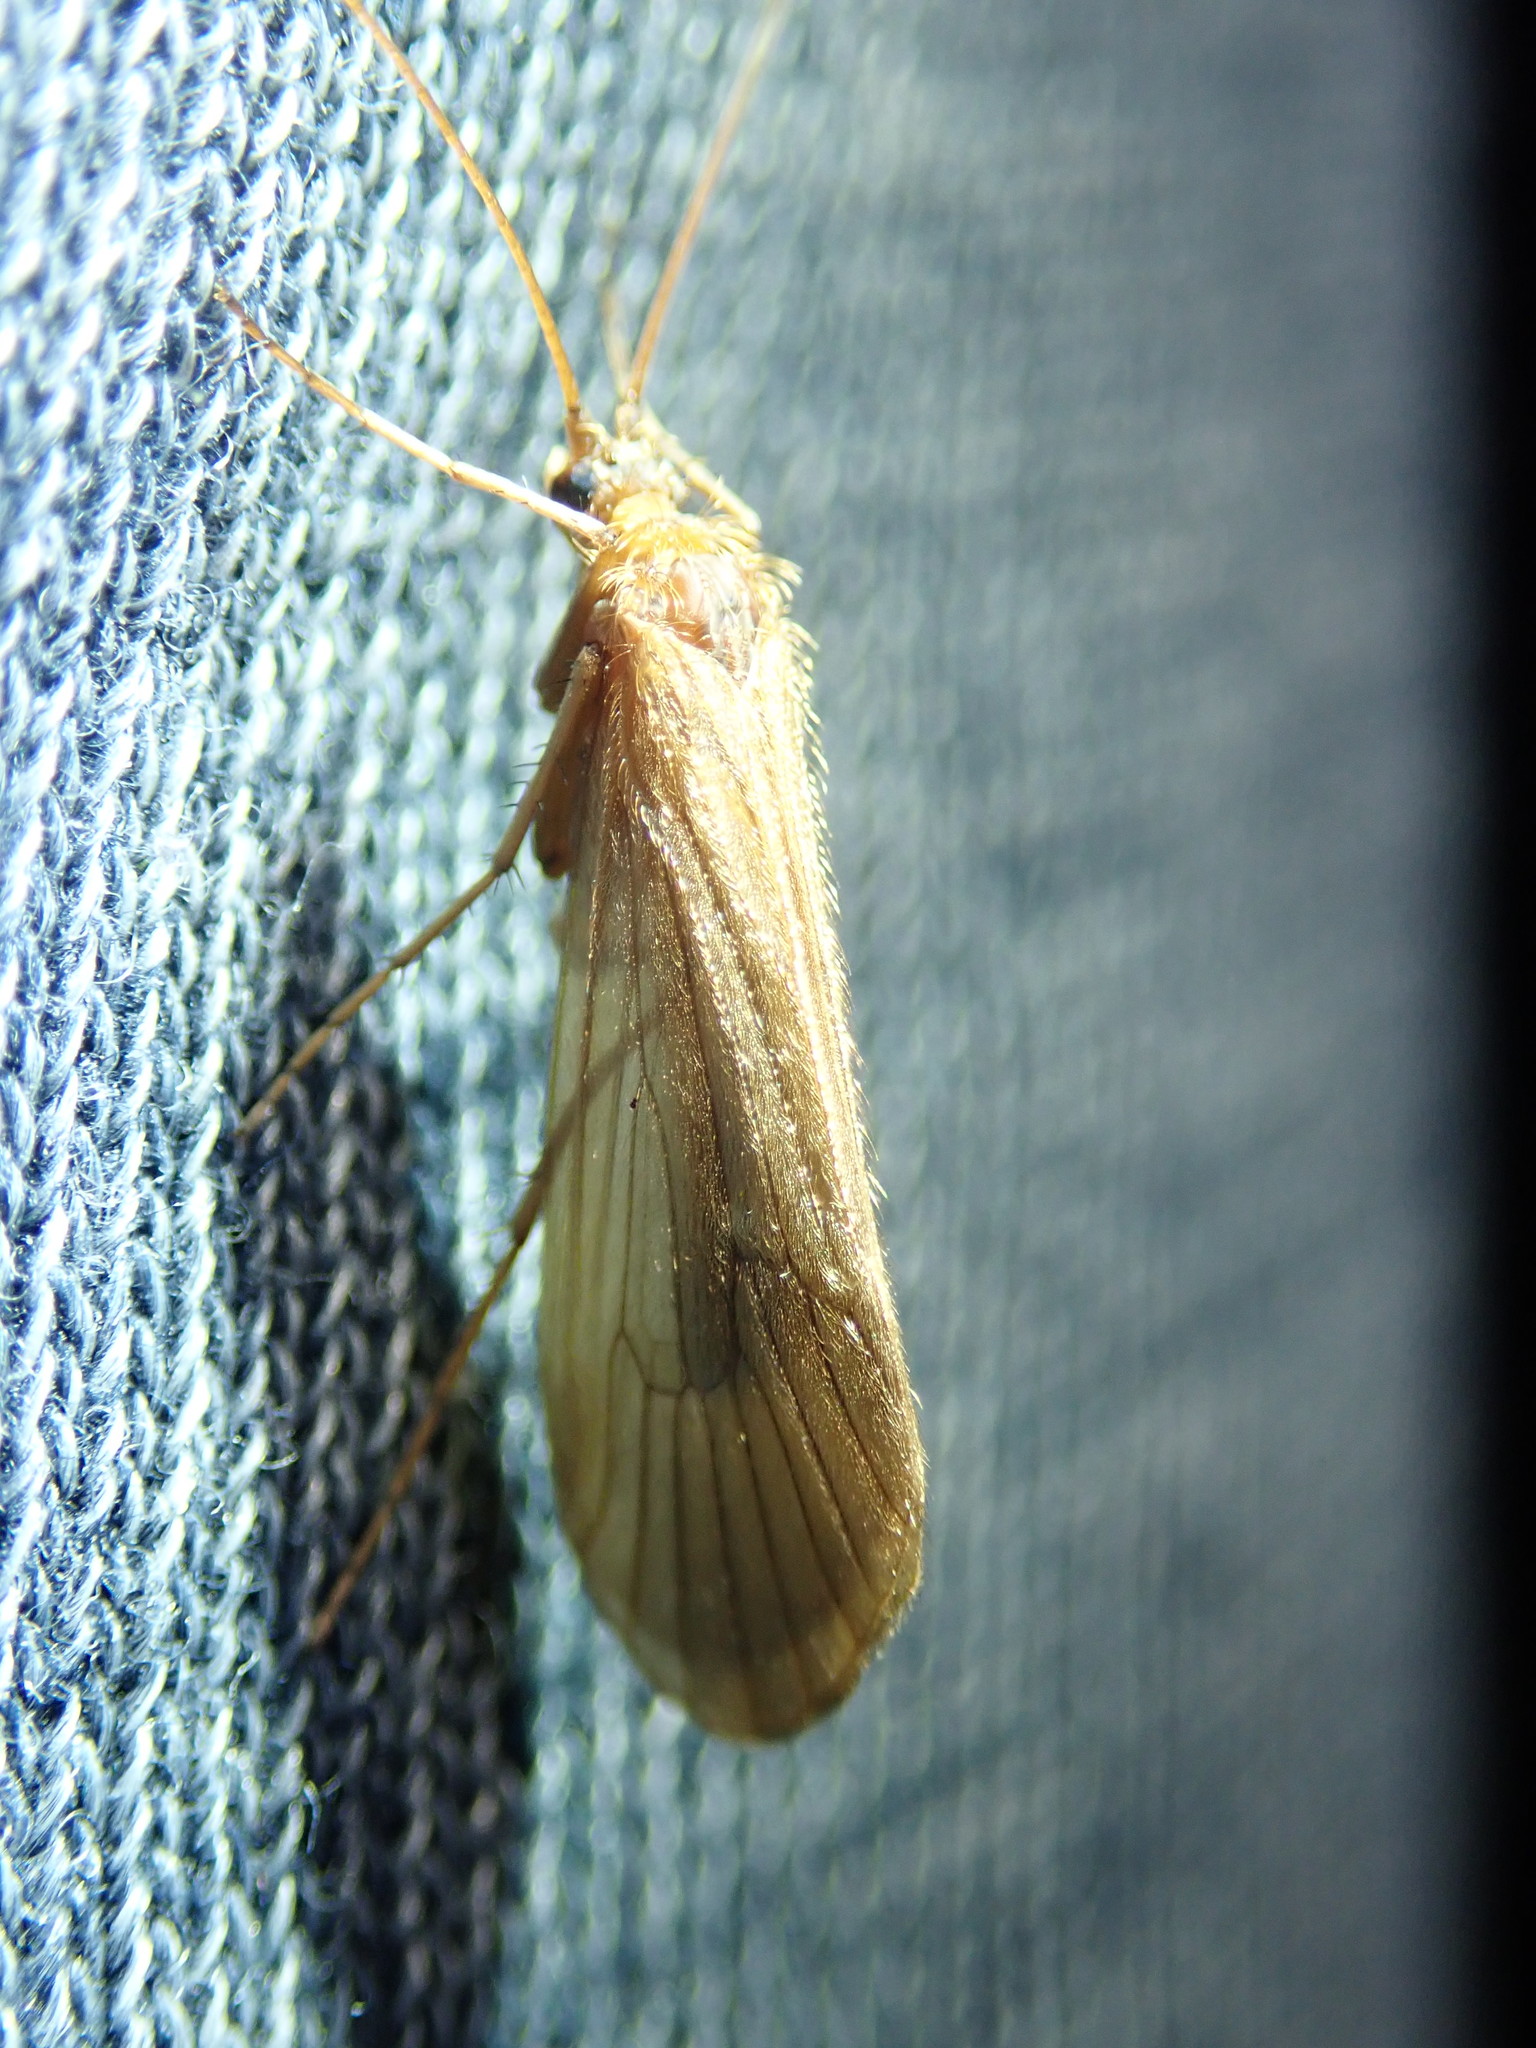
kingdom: Animalia
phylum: Arthropoda
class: Insecta
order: Trichoptera
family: Phryganeidae
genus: Agrypnia
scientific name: Agrypnia pagetana
